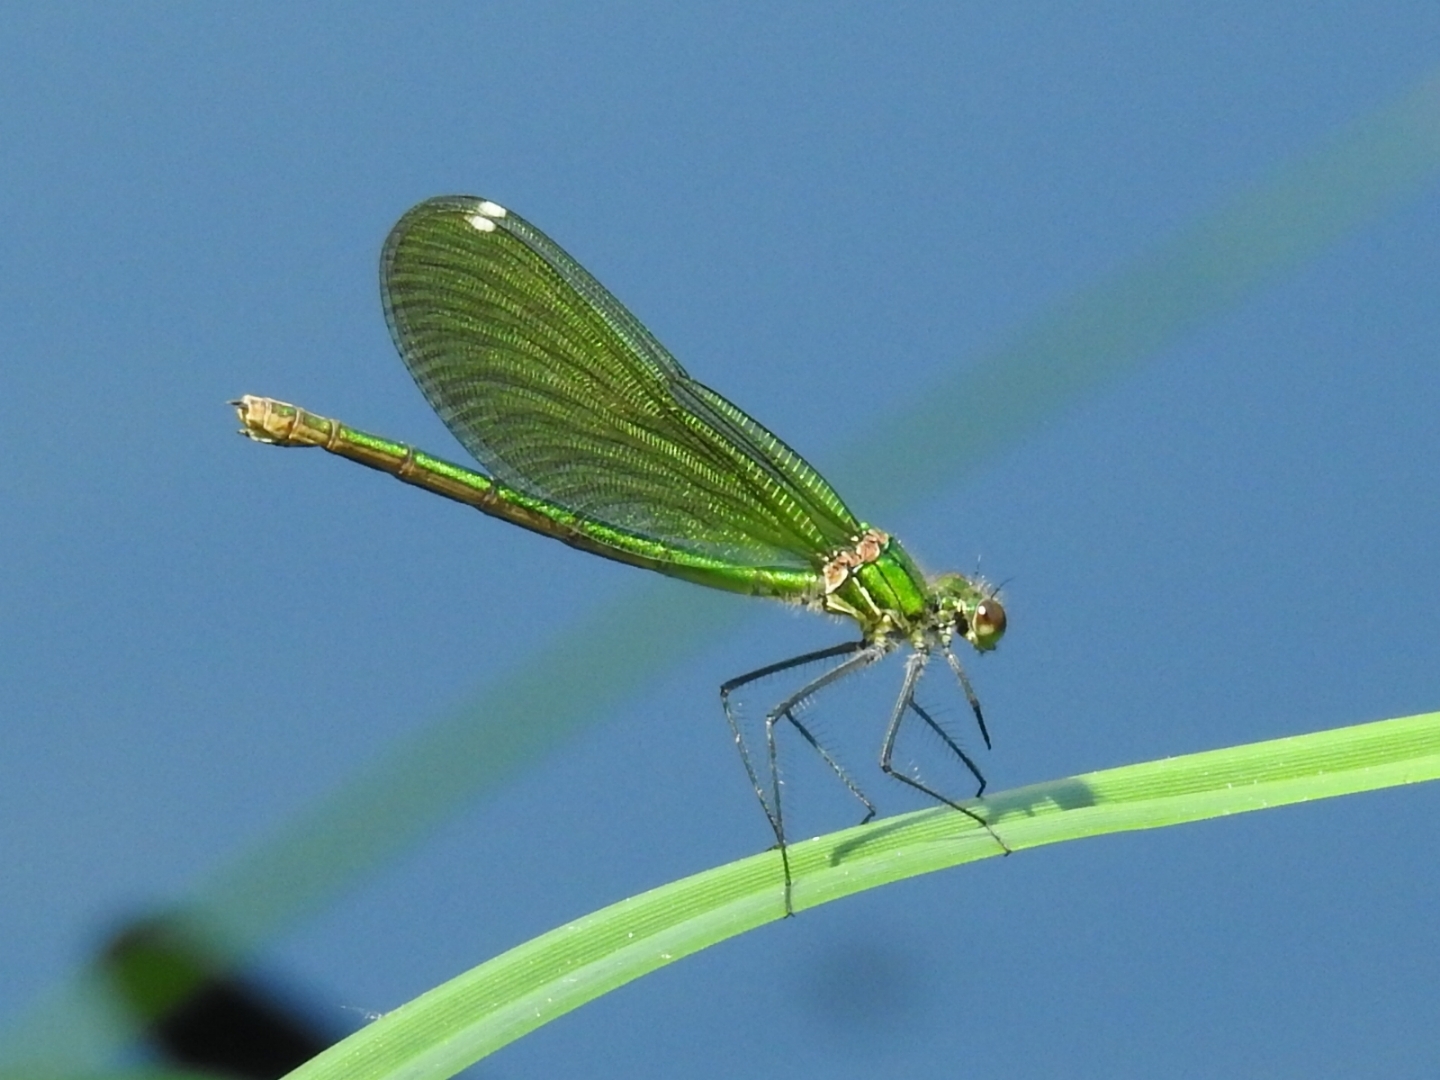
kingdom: Animalia
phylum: Arthropoda
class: Insecta
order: Odonata
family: Calopterygidae
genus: Calopteryx
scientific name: Calopteryx splendens
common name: Banded demoiselle
